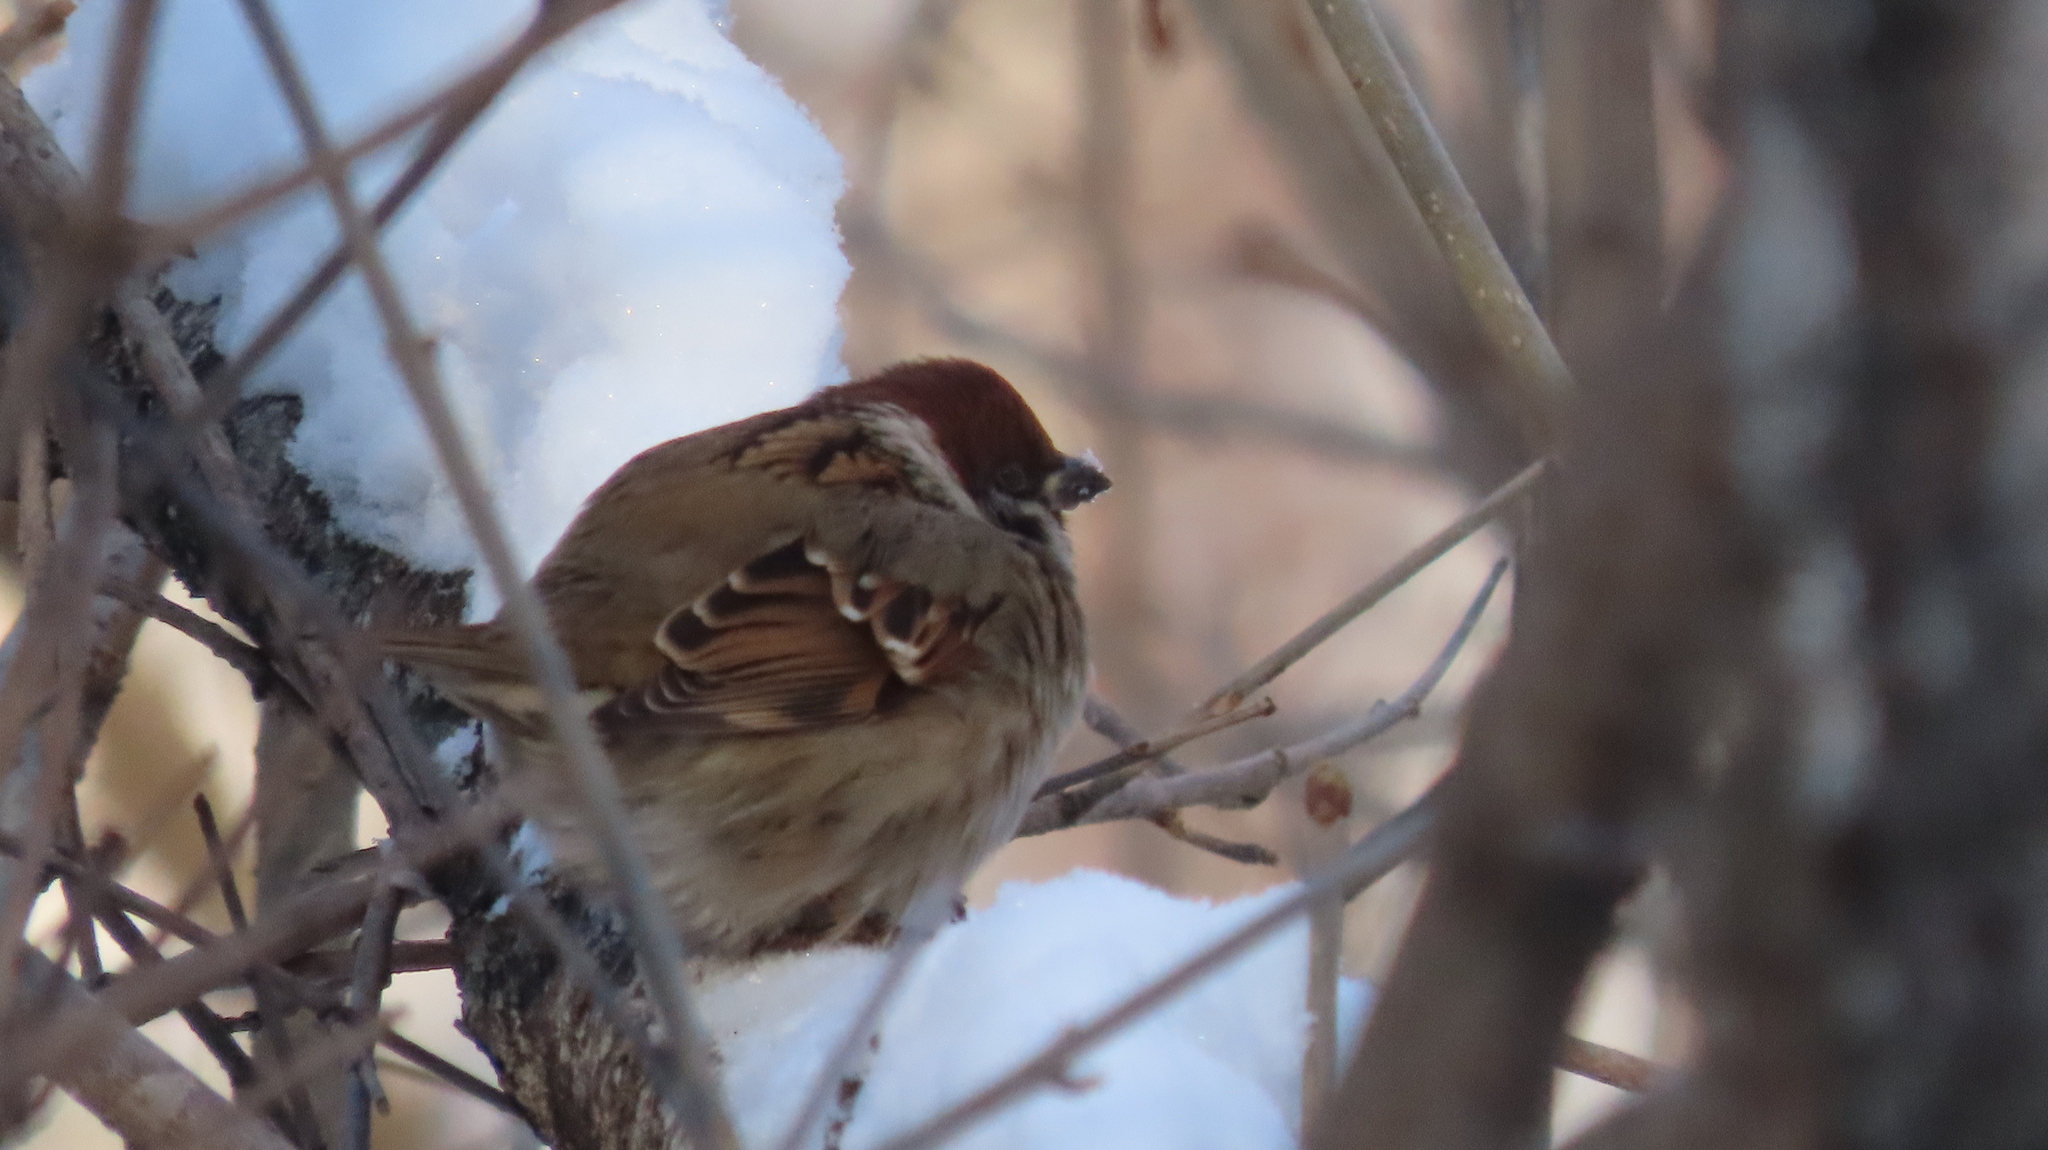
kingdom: Animalia
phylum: Chordata
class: Aves
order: Passeriformes
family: Passeridae
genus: Passer
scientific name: Passer montanus
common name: Eurasian tree sparrow
